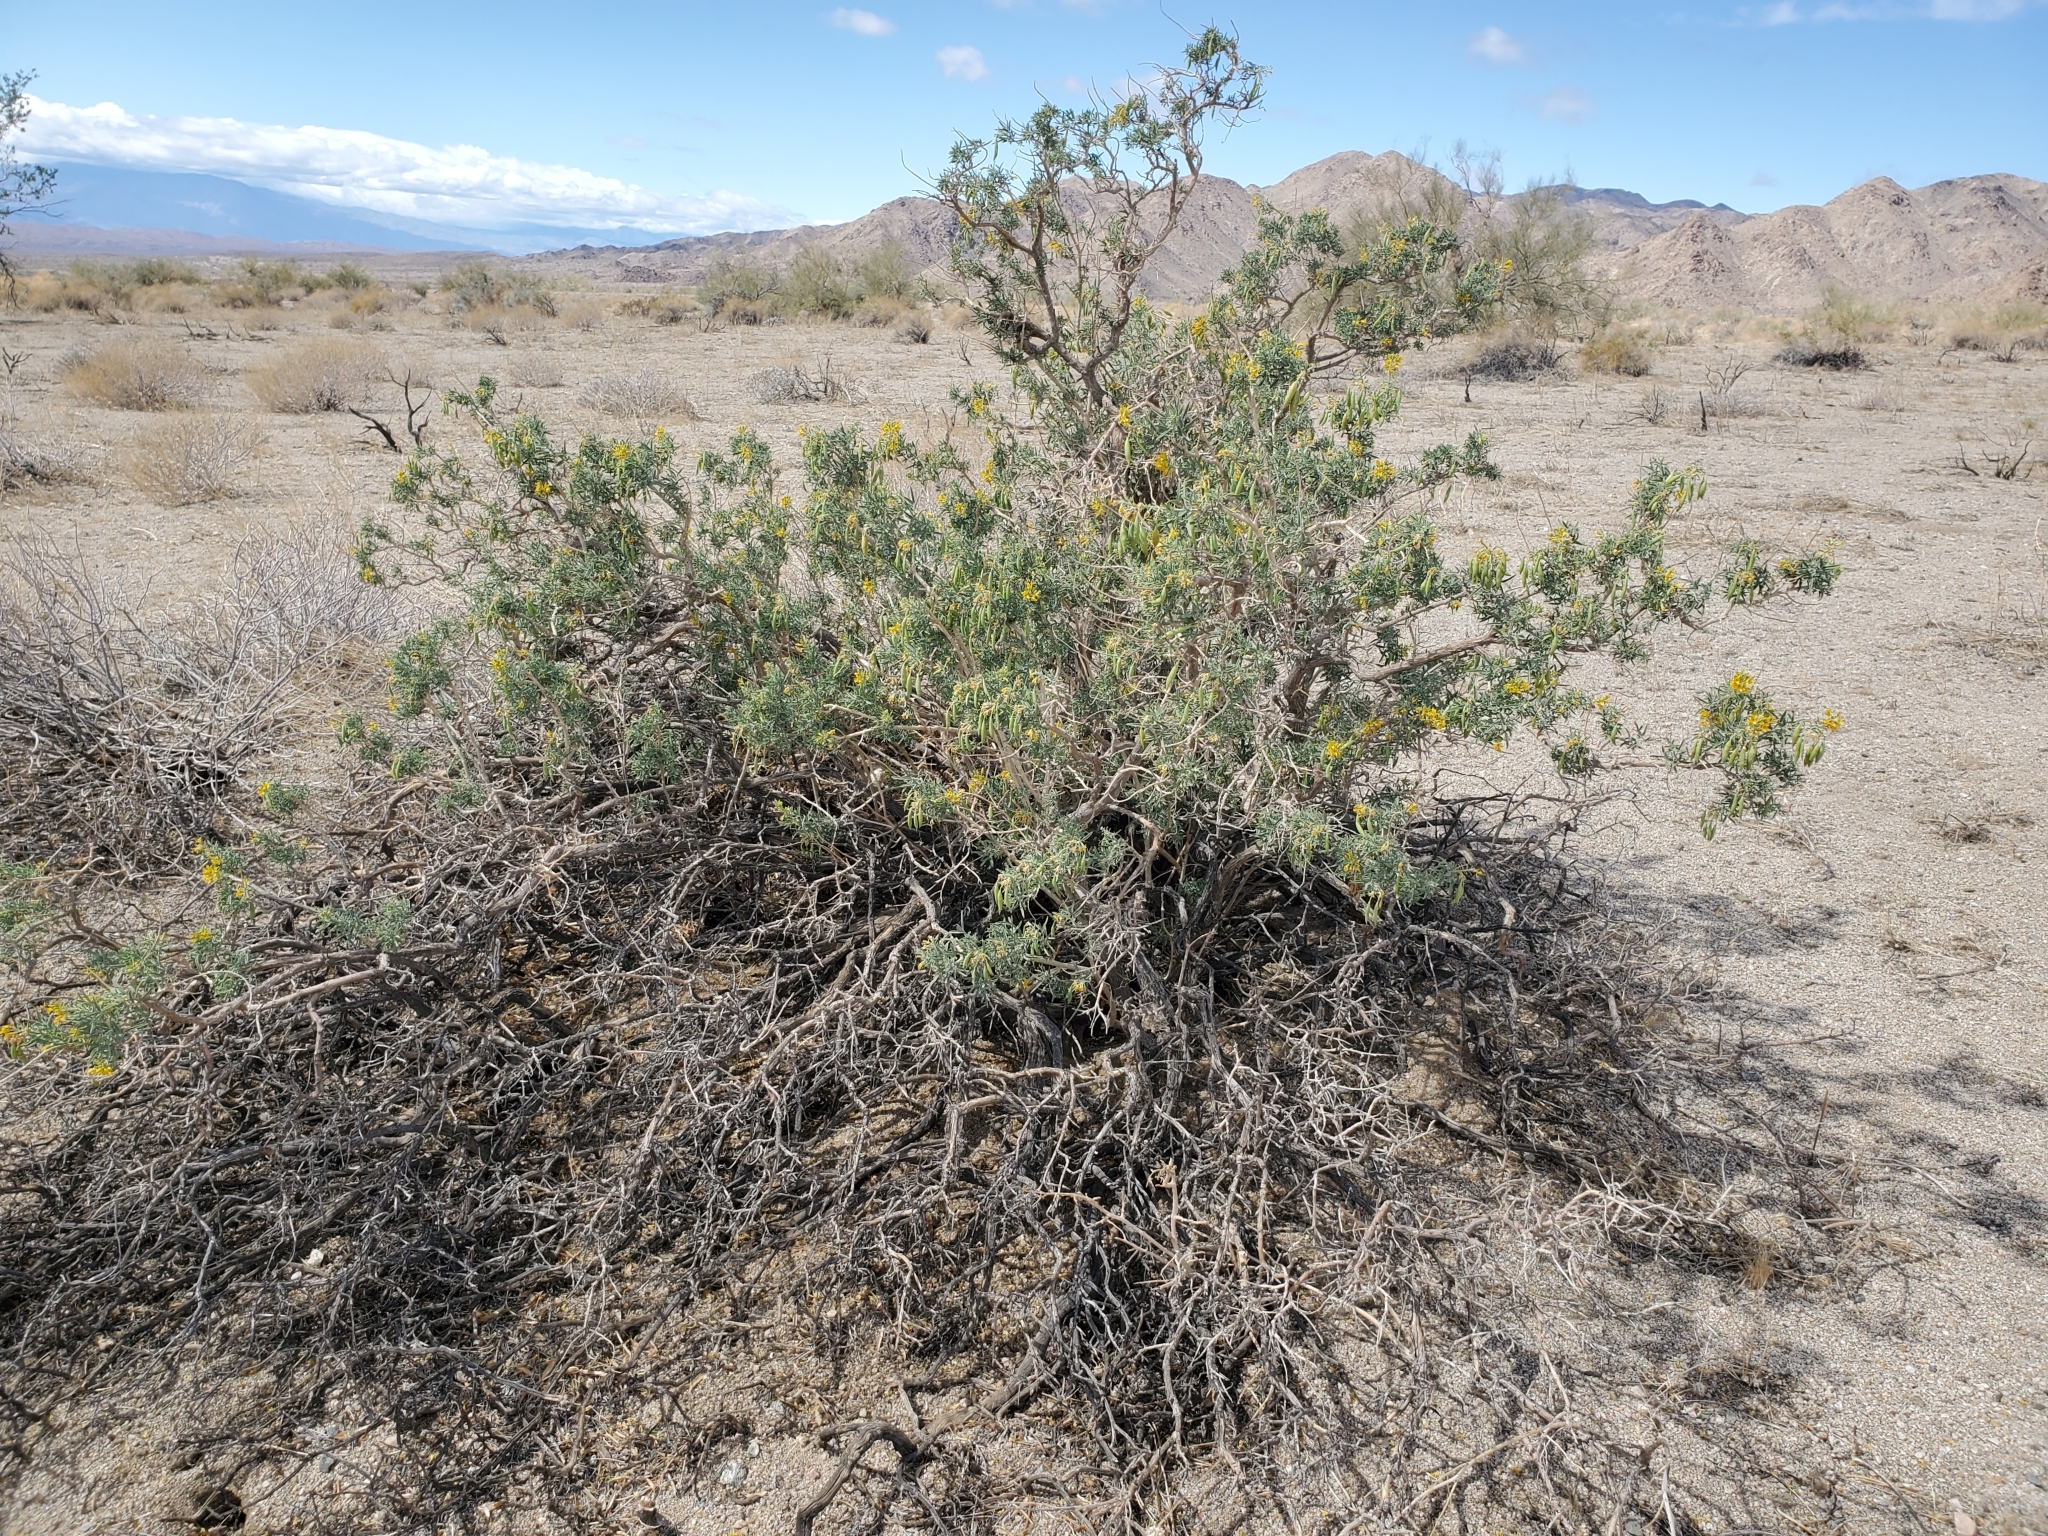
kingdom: Plantae
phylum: Tracheophyta
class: Magnoliopsida
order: Brassicales
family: Cleomaceae
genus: Cleomella
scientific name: Cleomella arborea
